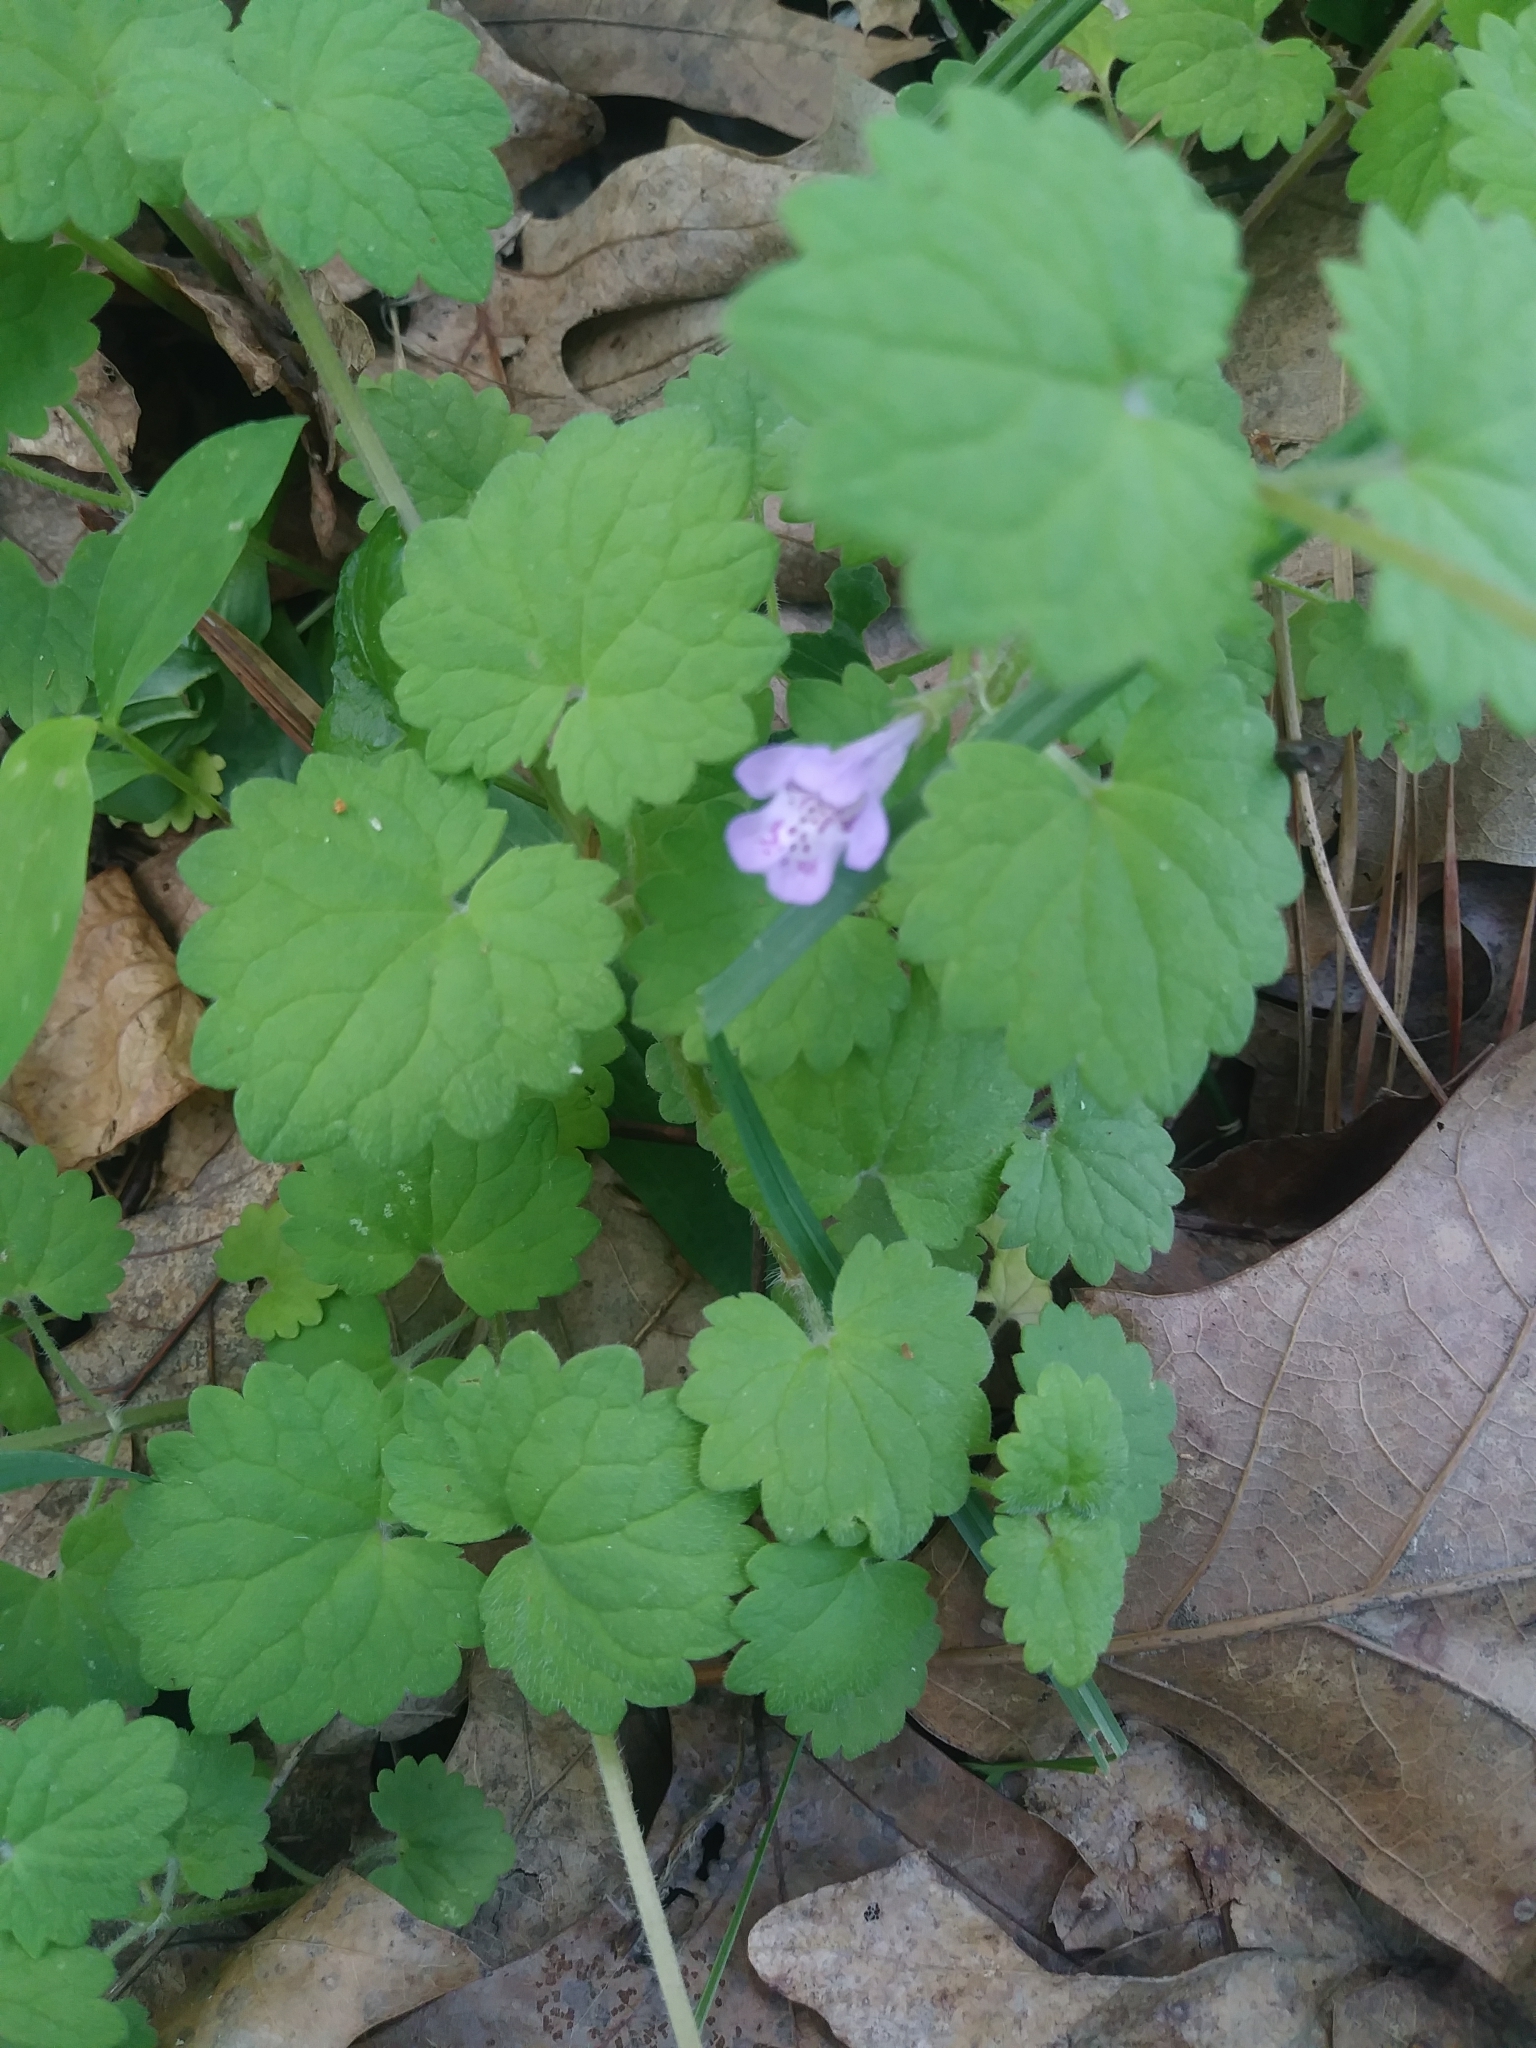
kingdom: Plantae
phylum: Tracheophyta
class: Magnoliopsida
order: Lamiales
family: Lamiaceae
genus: Glechoma
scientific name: Glechoma hederacea
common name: Ground ivy
